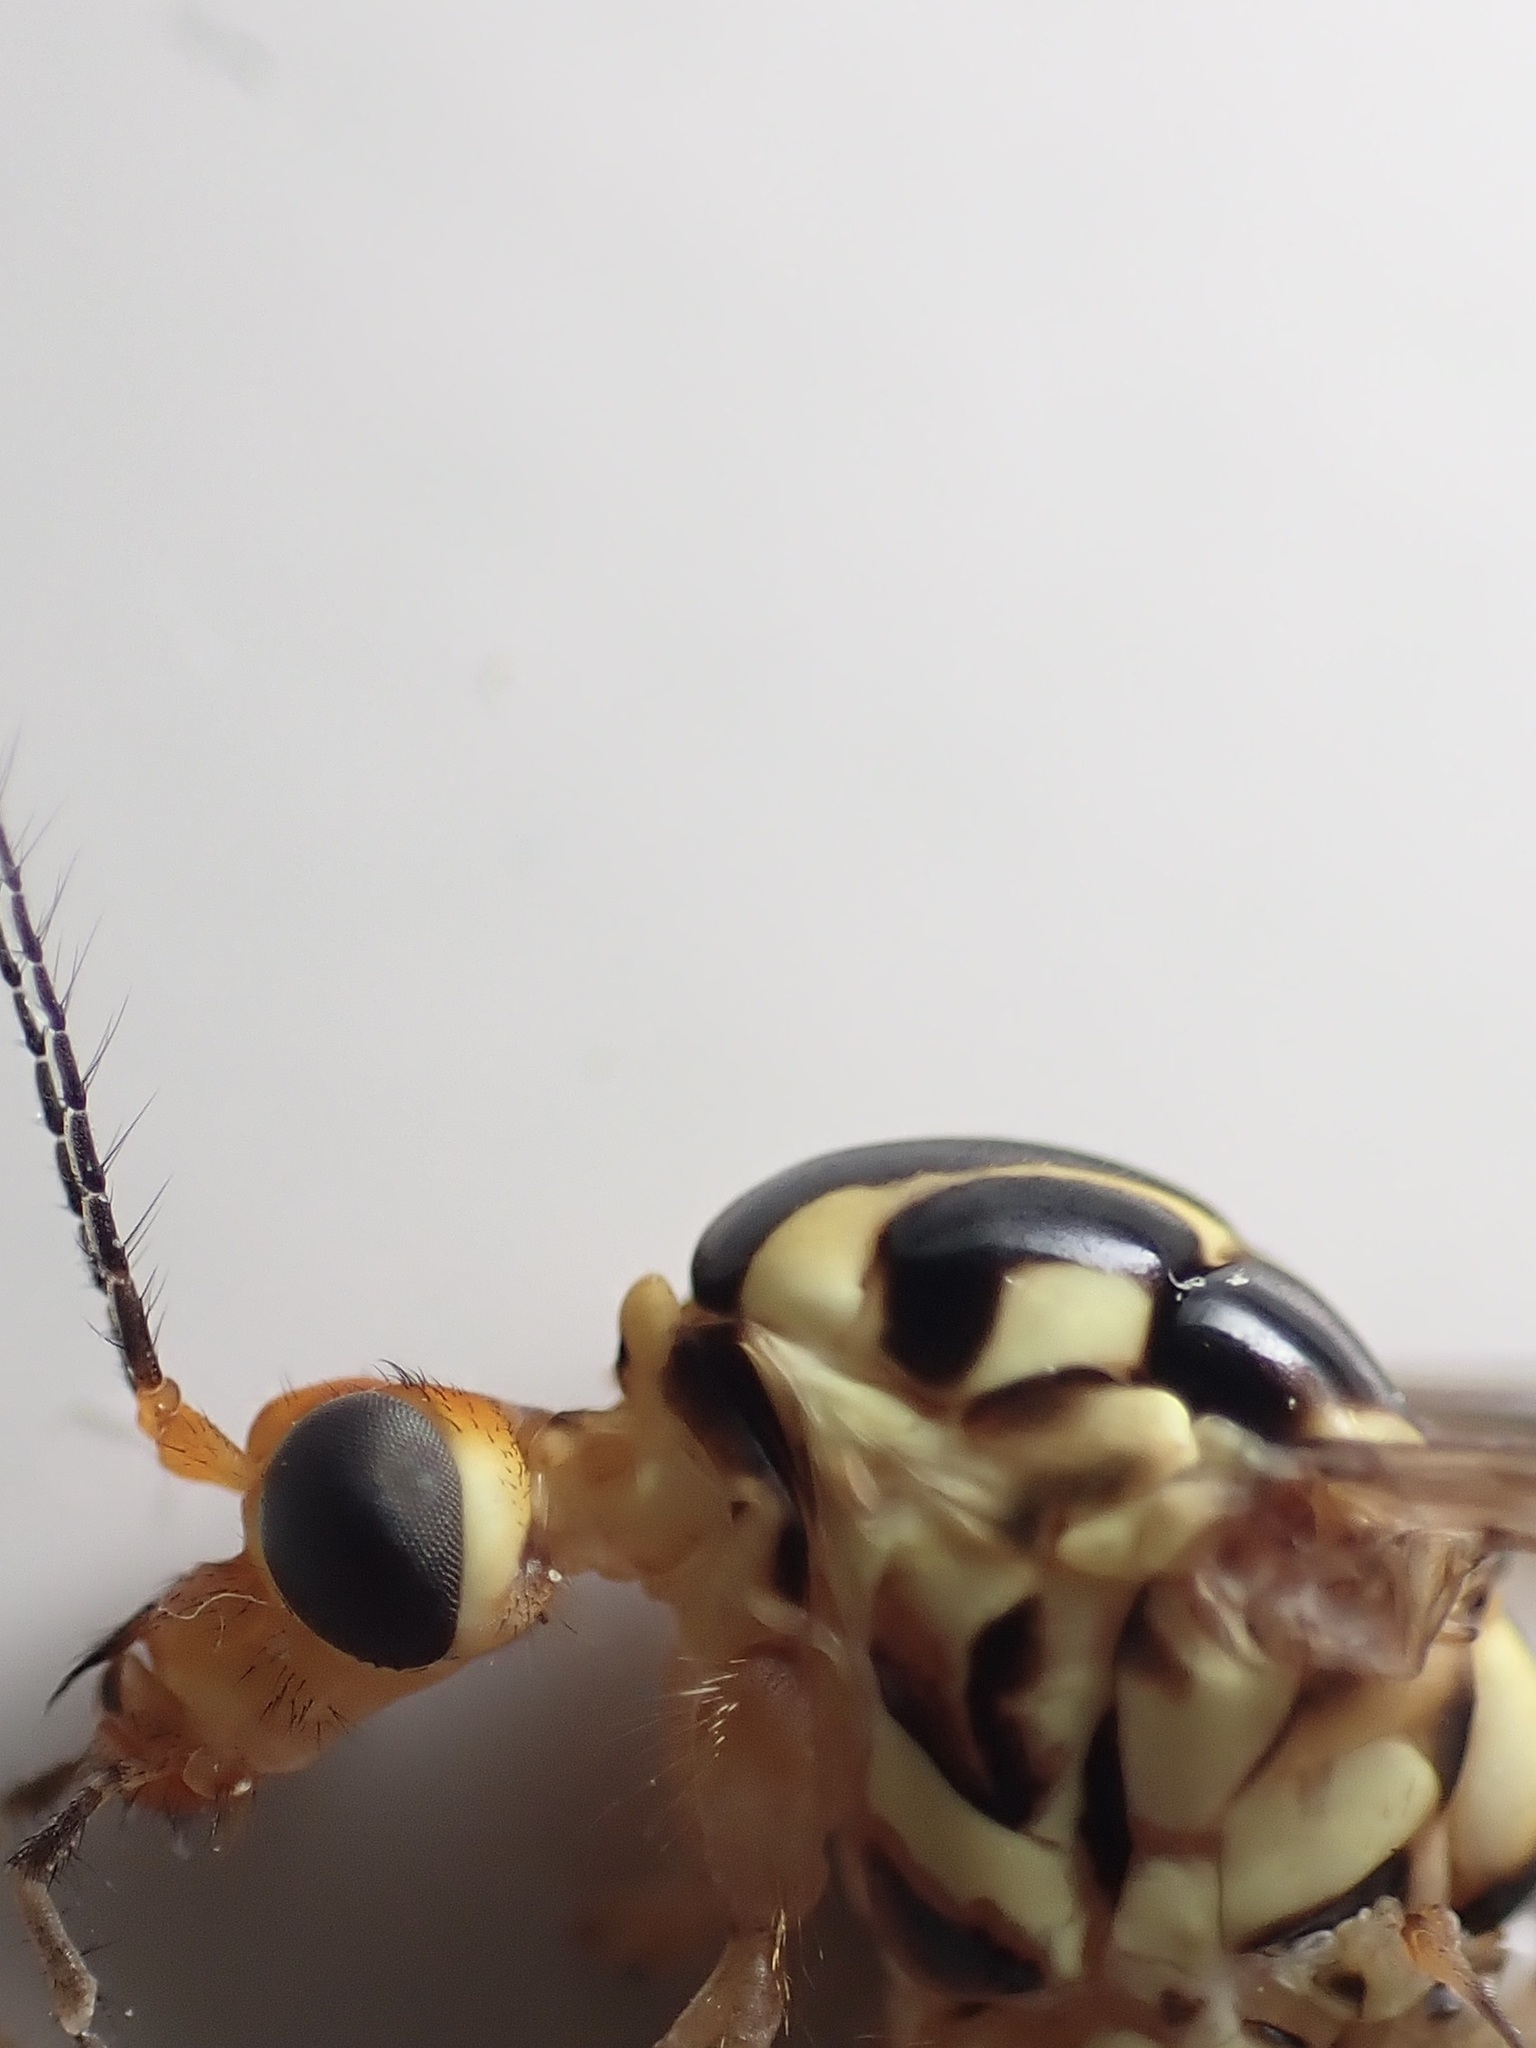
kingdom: Animalia
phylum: Arthropoda
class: Insecta
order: Diptera
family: Tipulidae
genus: Nephrotoma
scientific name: Nephrotoma flavipalpis
